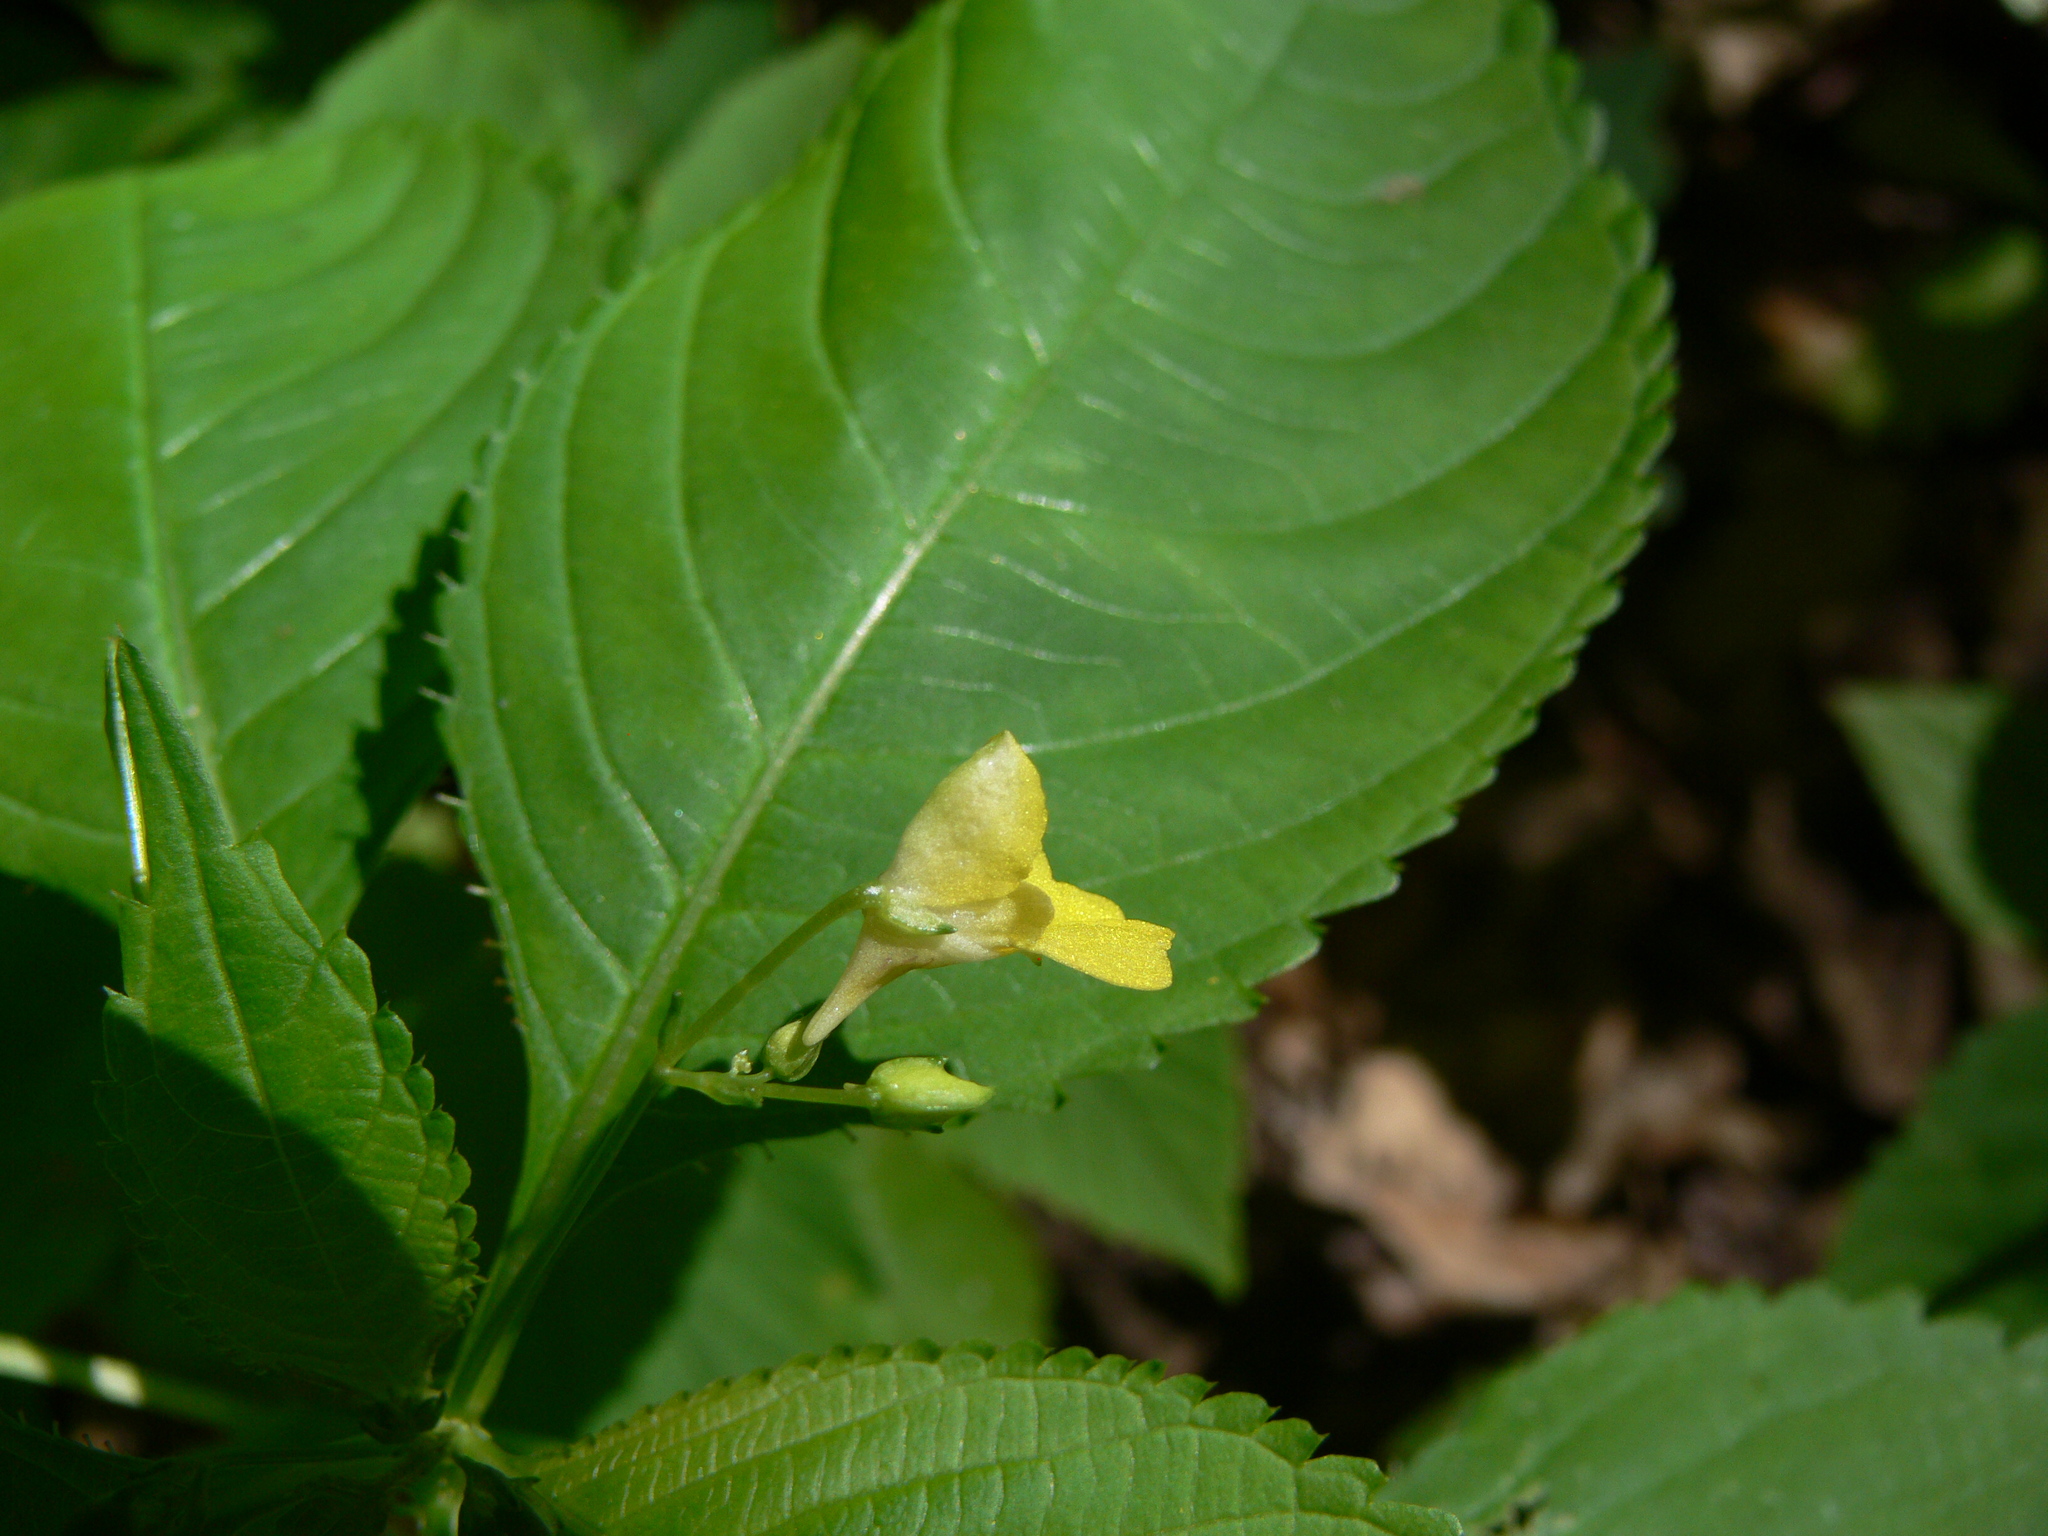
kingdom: Plantae
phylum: Tracheophyta
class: Magnoliopsida
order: Ericales
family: Balsaminaceae
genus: Impatiens
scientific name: Impatiens parviflora
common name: Small balsam
